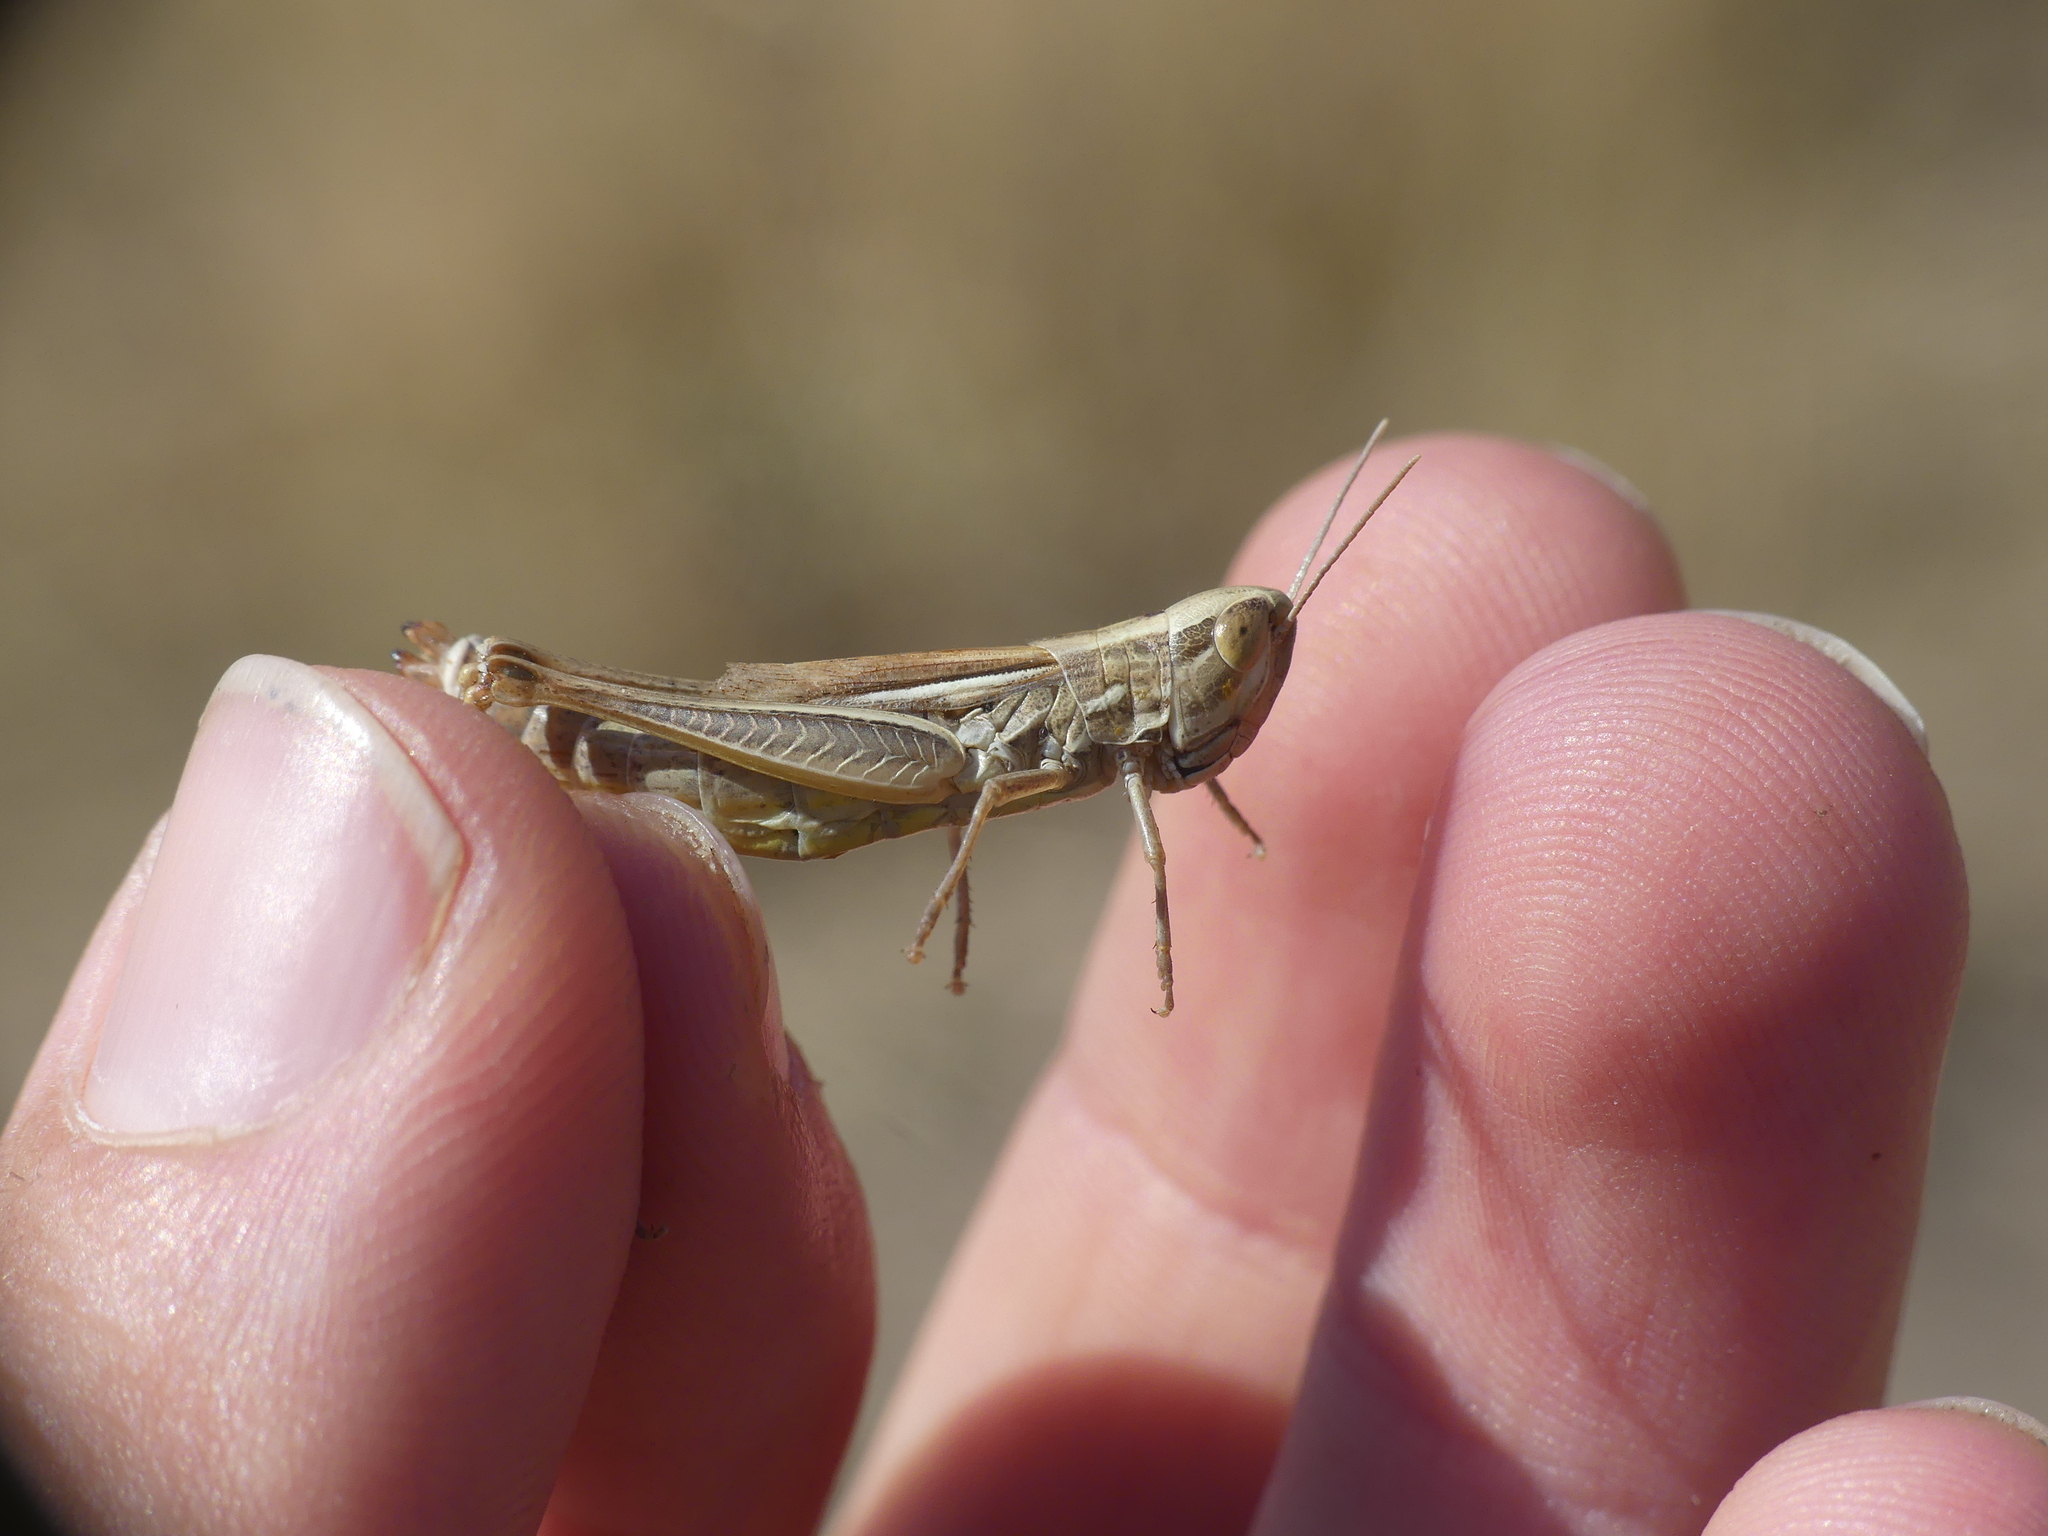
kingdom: Animalia
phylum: Arthropoda
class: Insecta
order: Orthoptera
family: Acrididae
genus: Euchorthippus
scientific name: Euchorthippus declivus
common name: Common straw grasshopper
